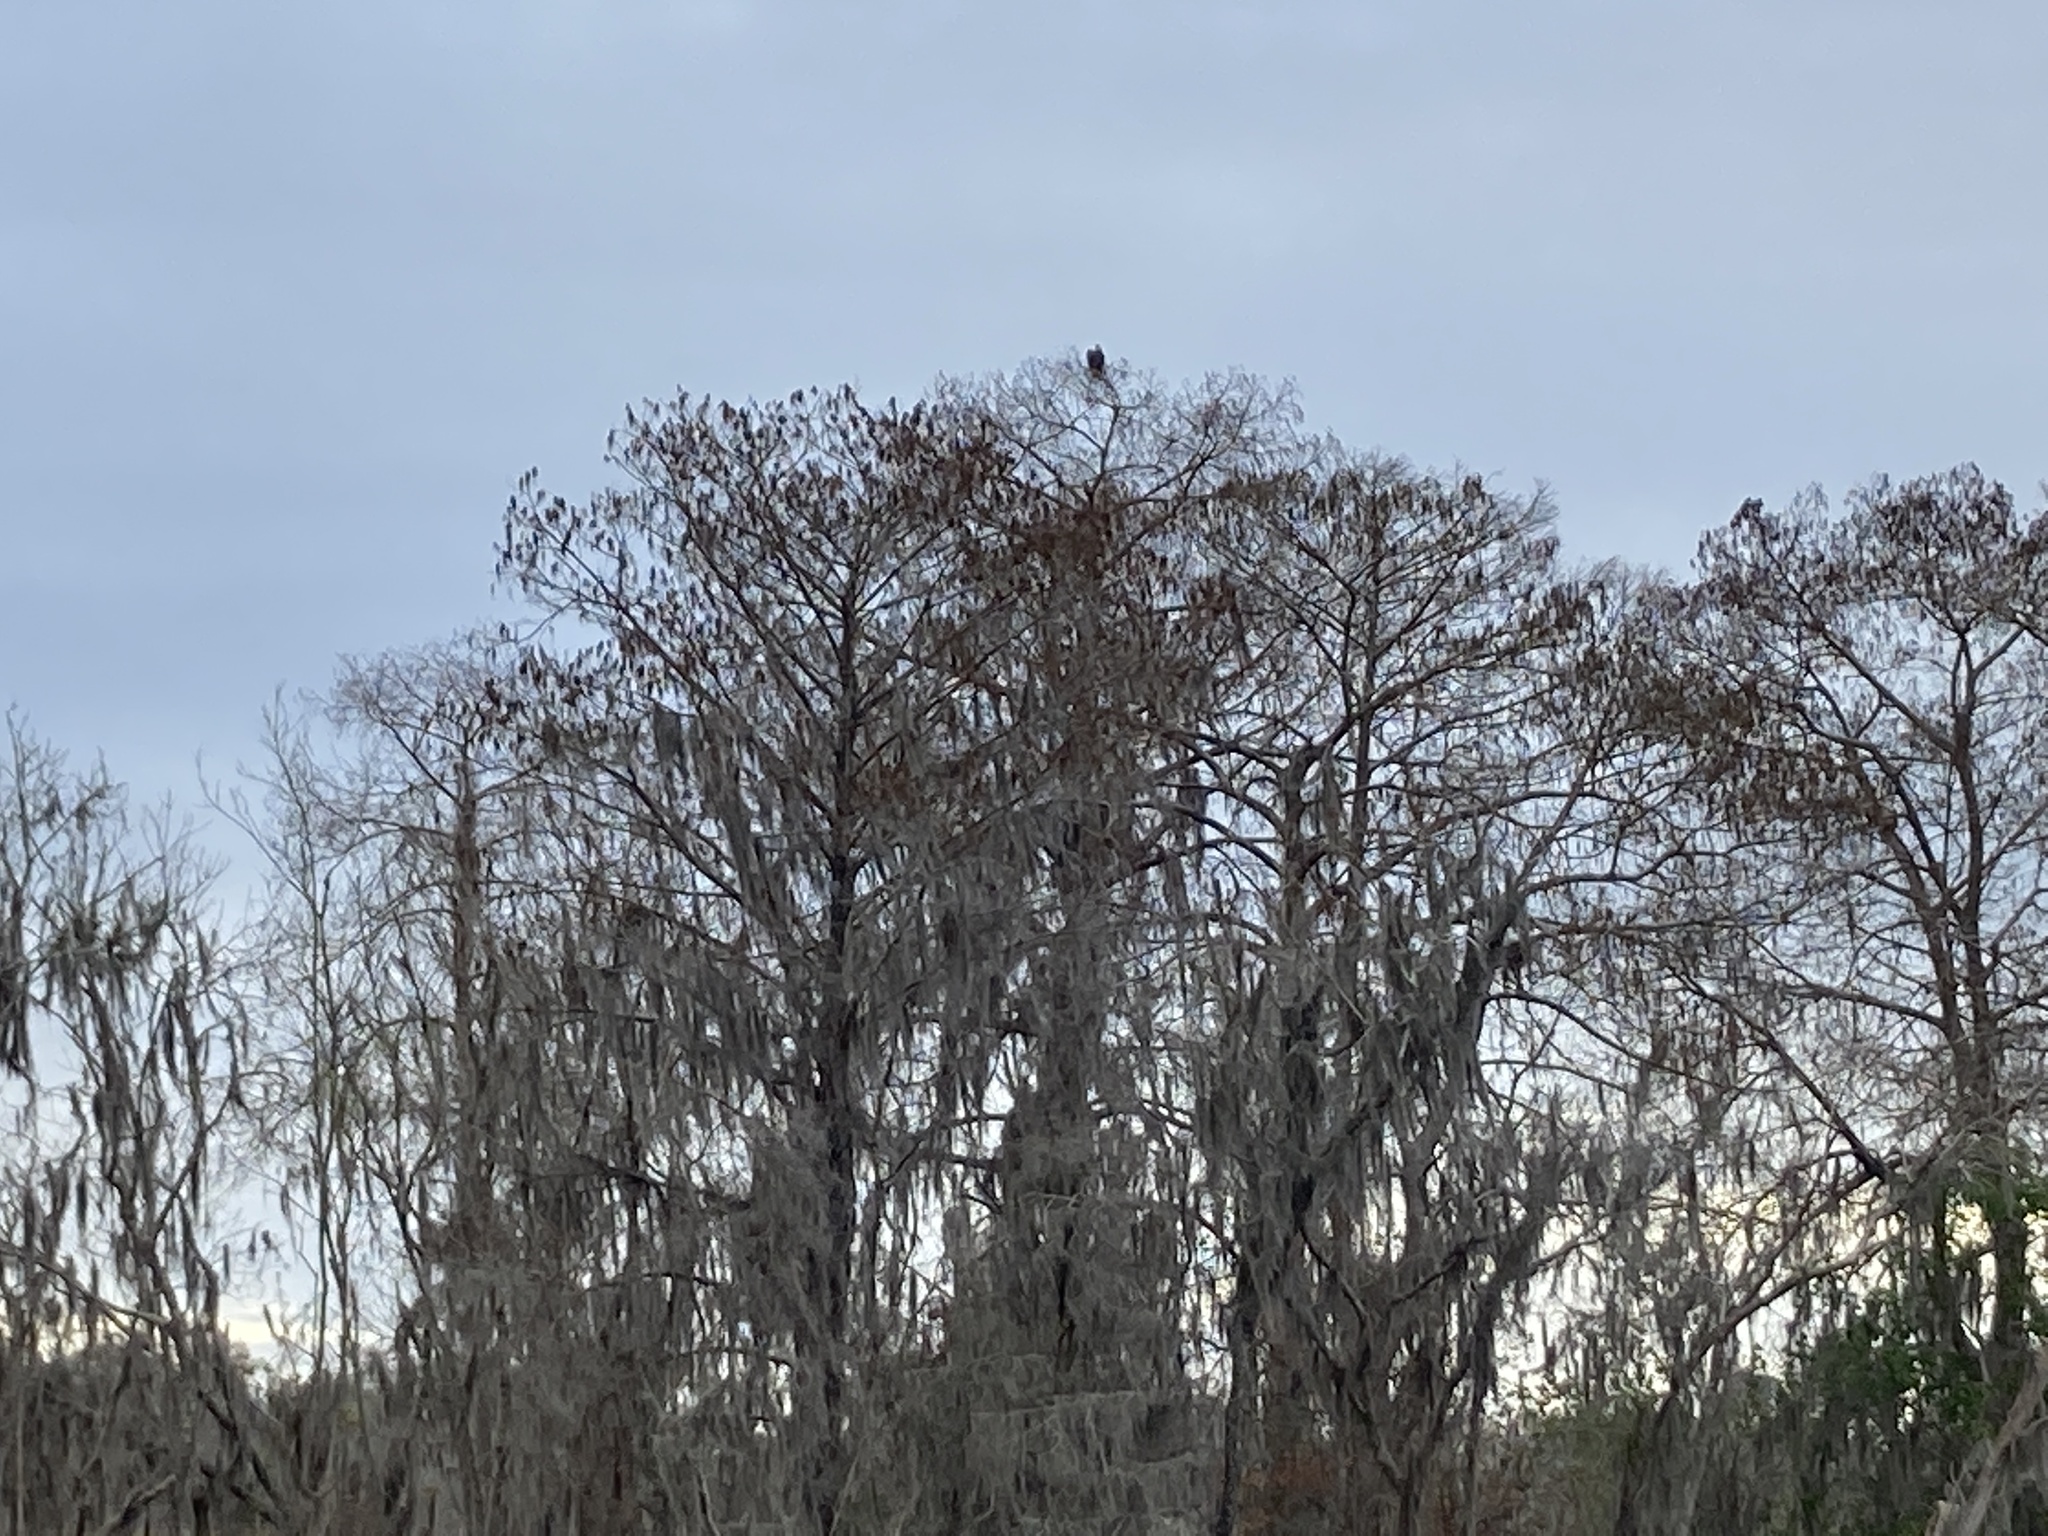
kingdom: Animalia
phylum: Chordata
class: Aves
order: Accipitriformes
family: Accipitridae
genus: Haliaeetus
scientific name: Haliaeetus leucocephalus
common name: Bald eagle
